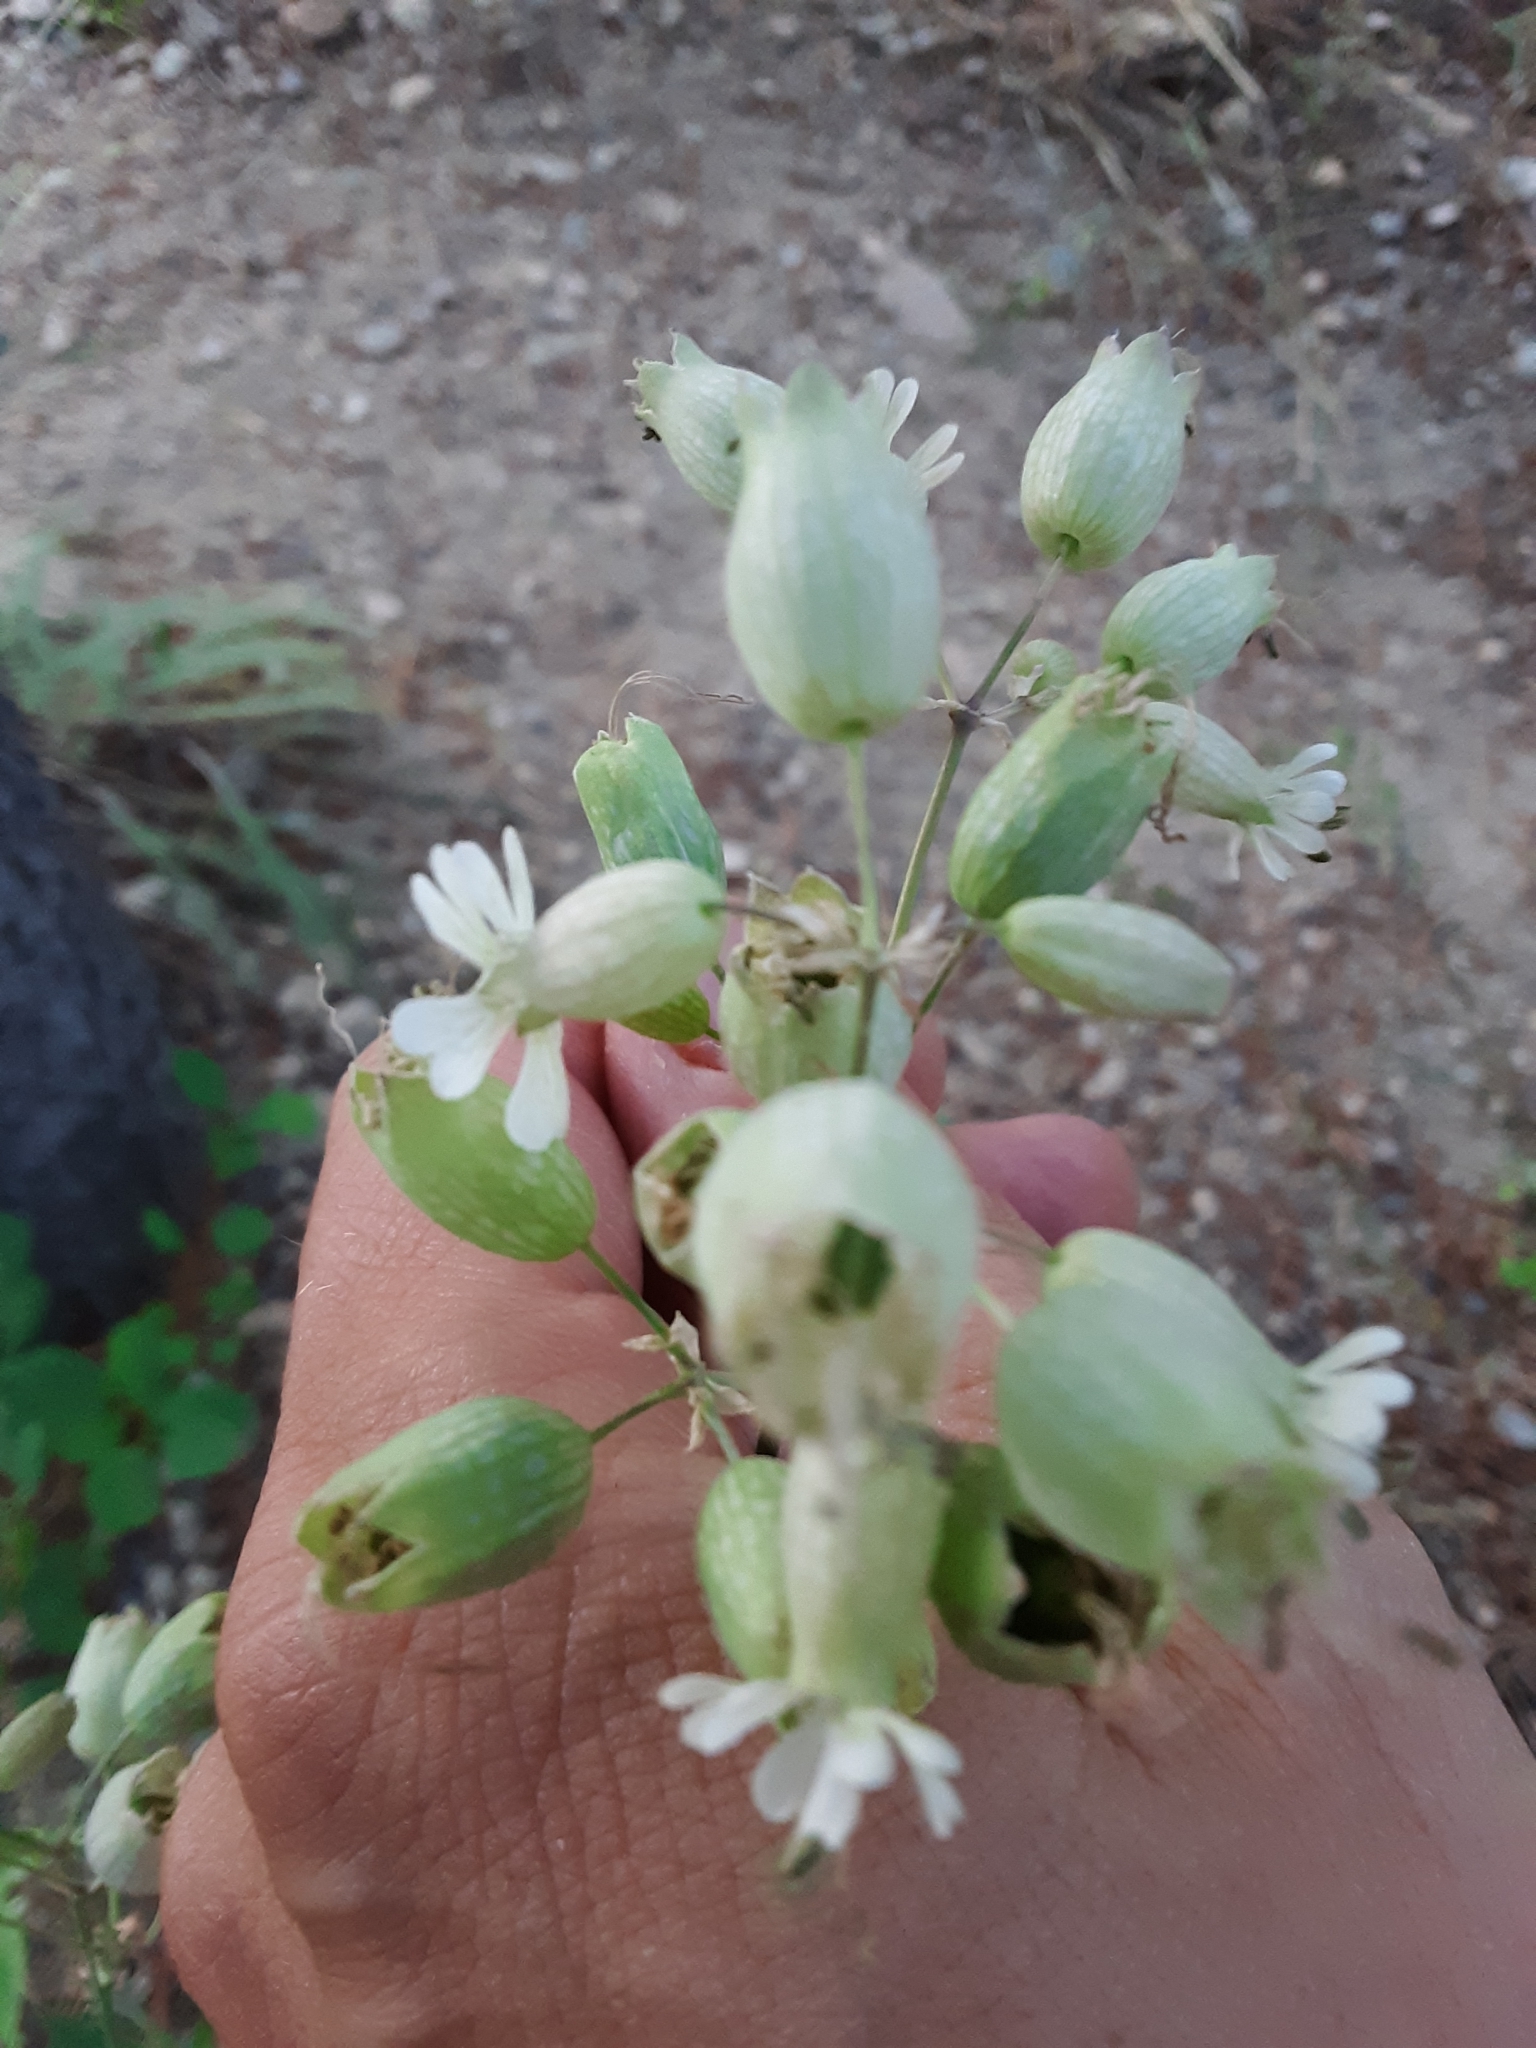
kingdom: Plantae
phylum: Tracheophyta
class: Magnoliopsida
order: Caryophyllales
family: Caryophyllaceae
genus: Silene
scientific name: Silene vulgaris
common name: Bladder campion
